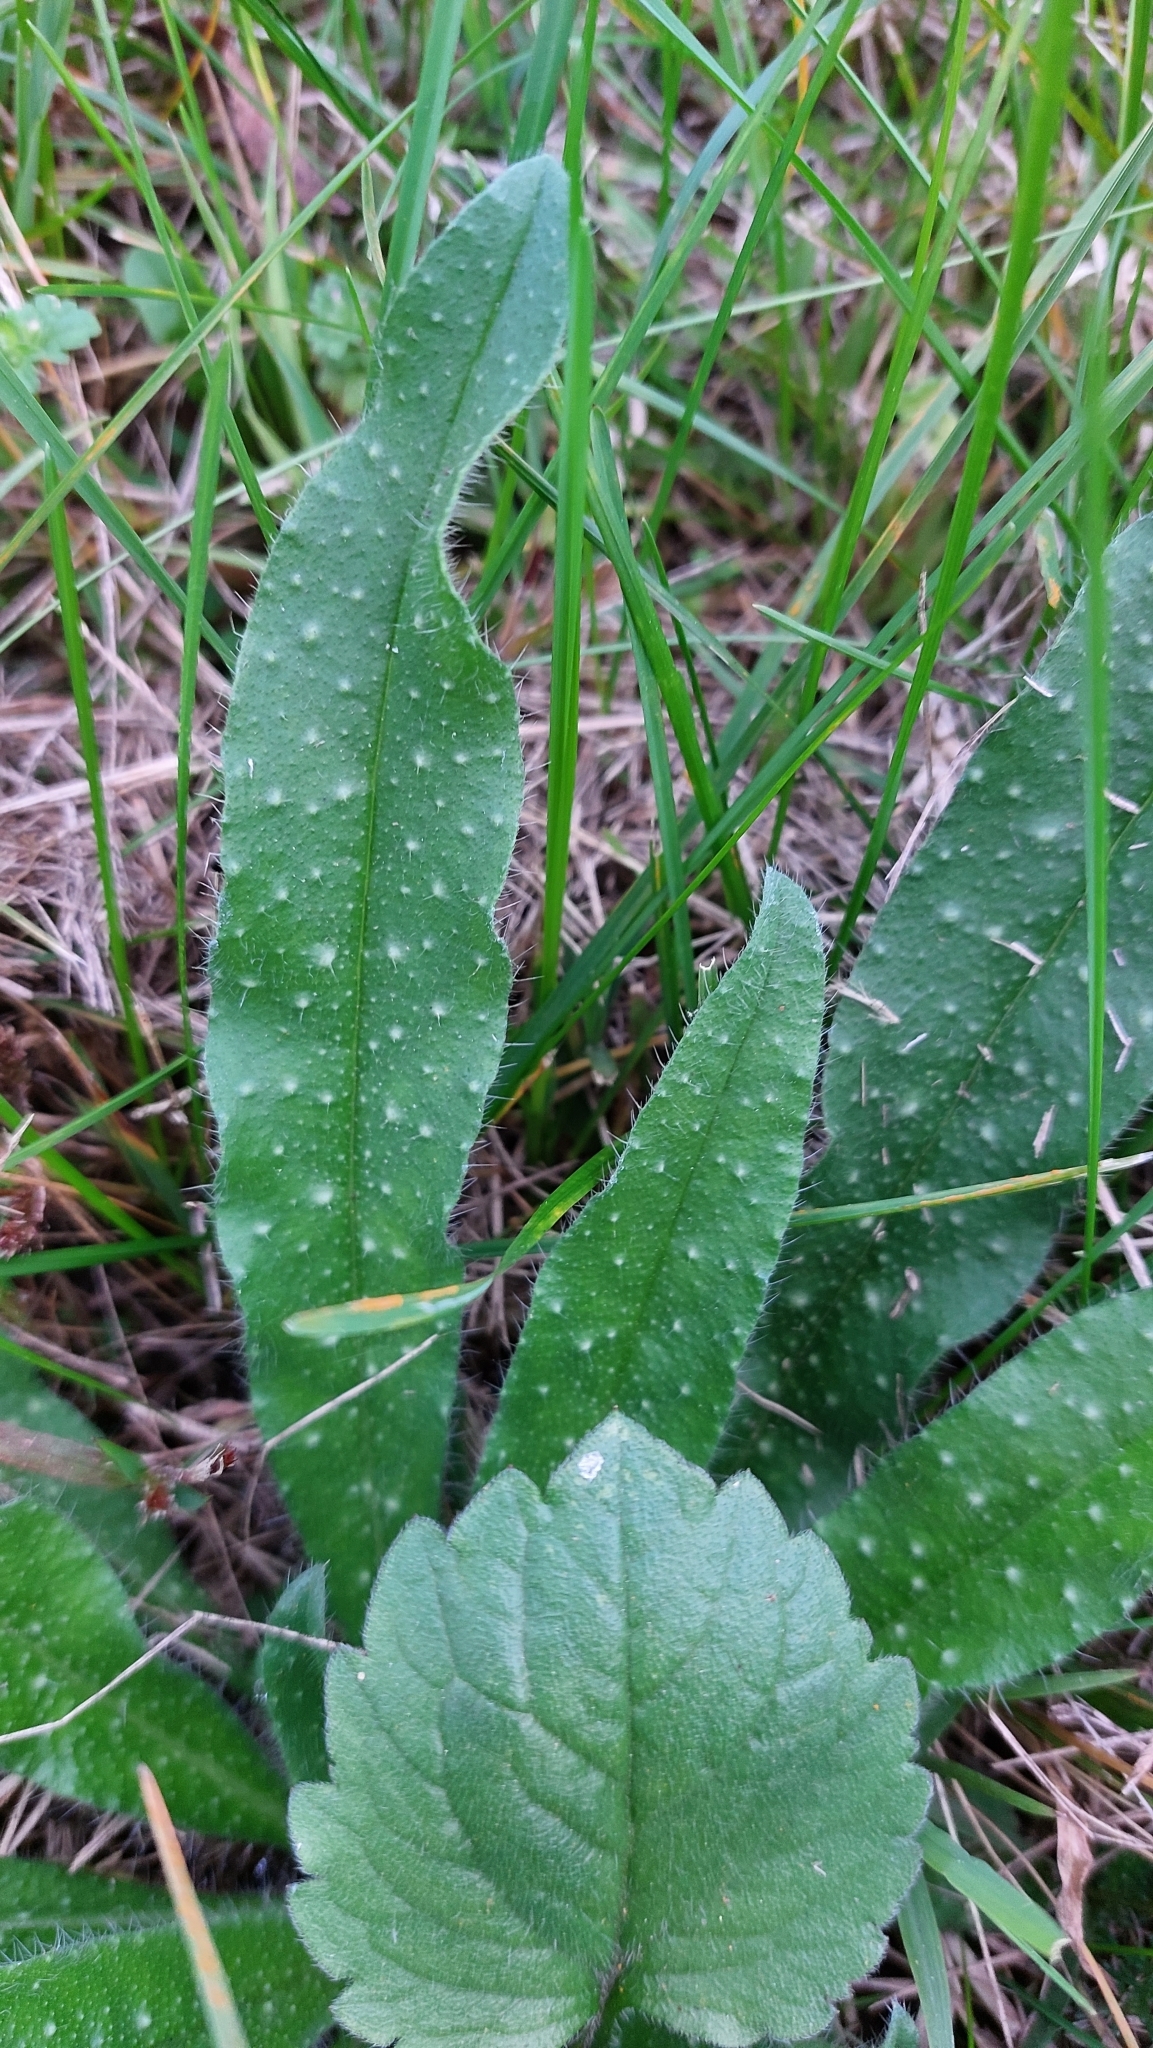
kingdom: Plantae
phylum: Tracheophyta
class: Magnoliopsida
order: Boraginales
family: Boraginaceae
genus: Echium
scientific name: Echium vulgare
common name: Common viper's bugloss
